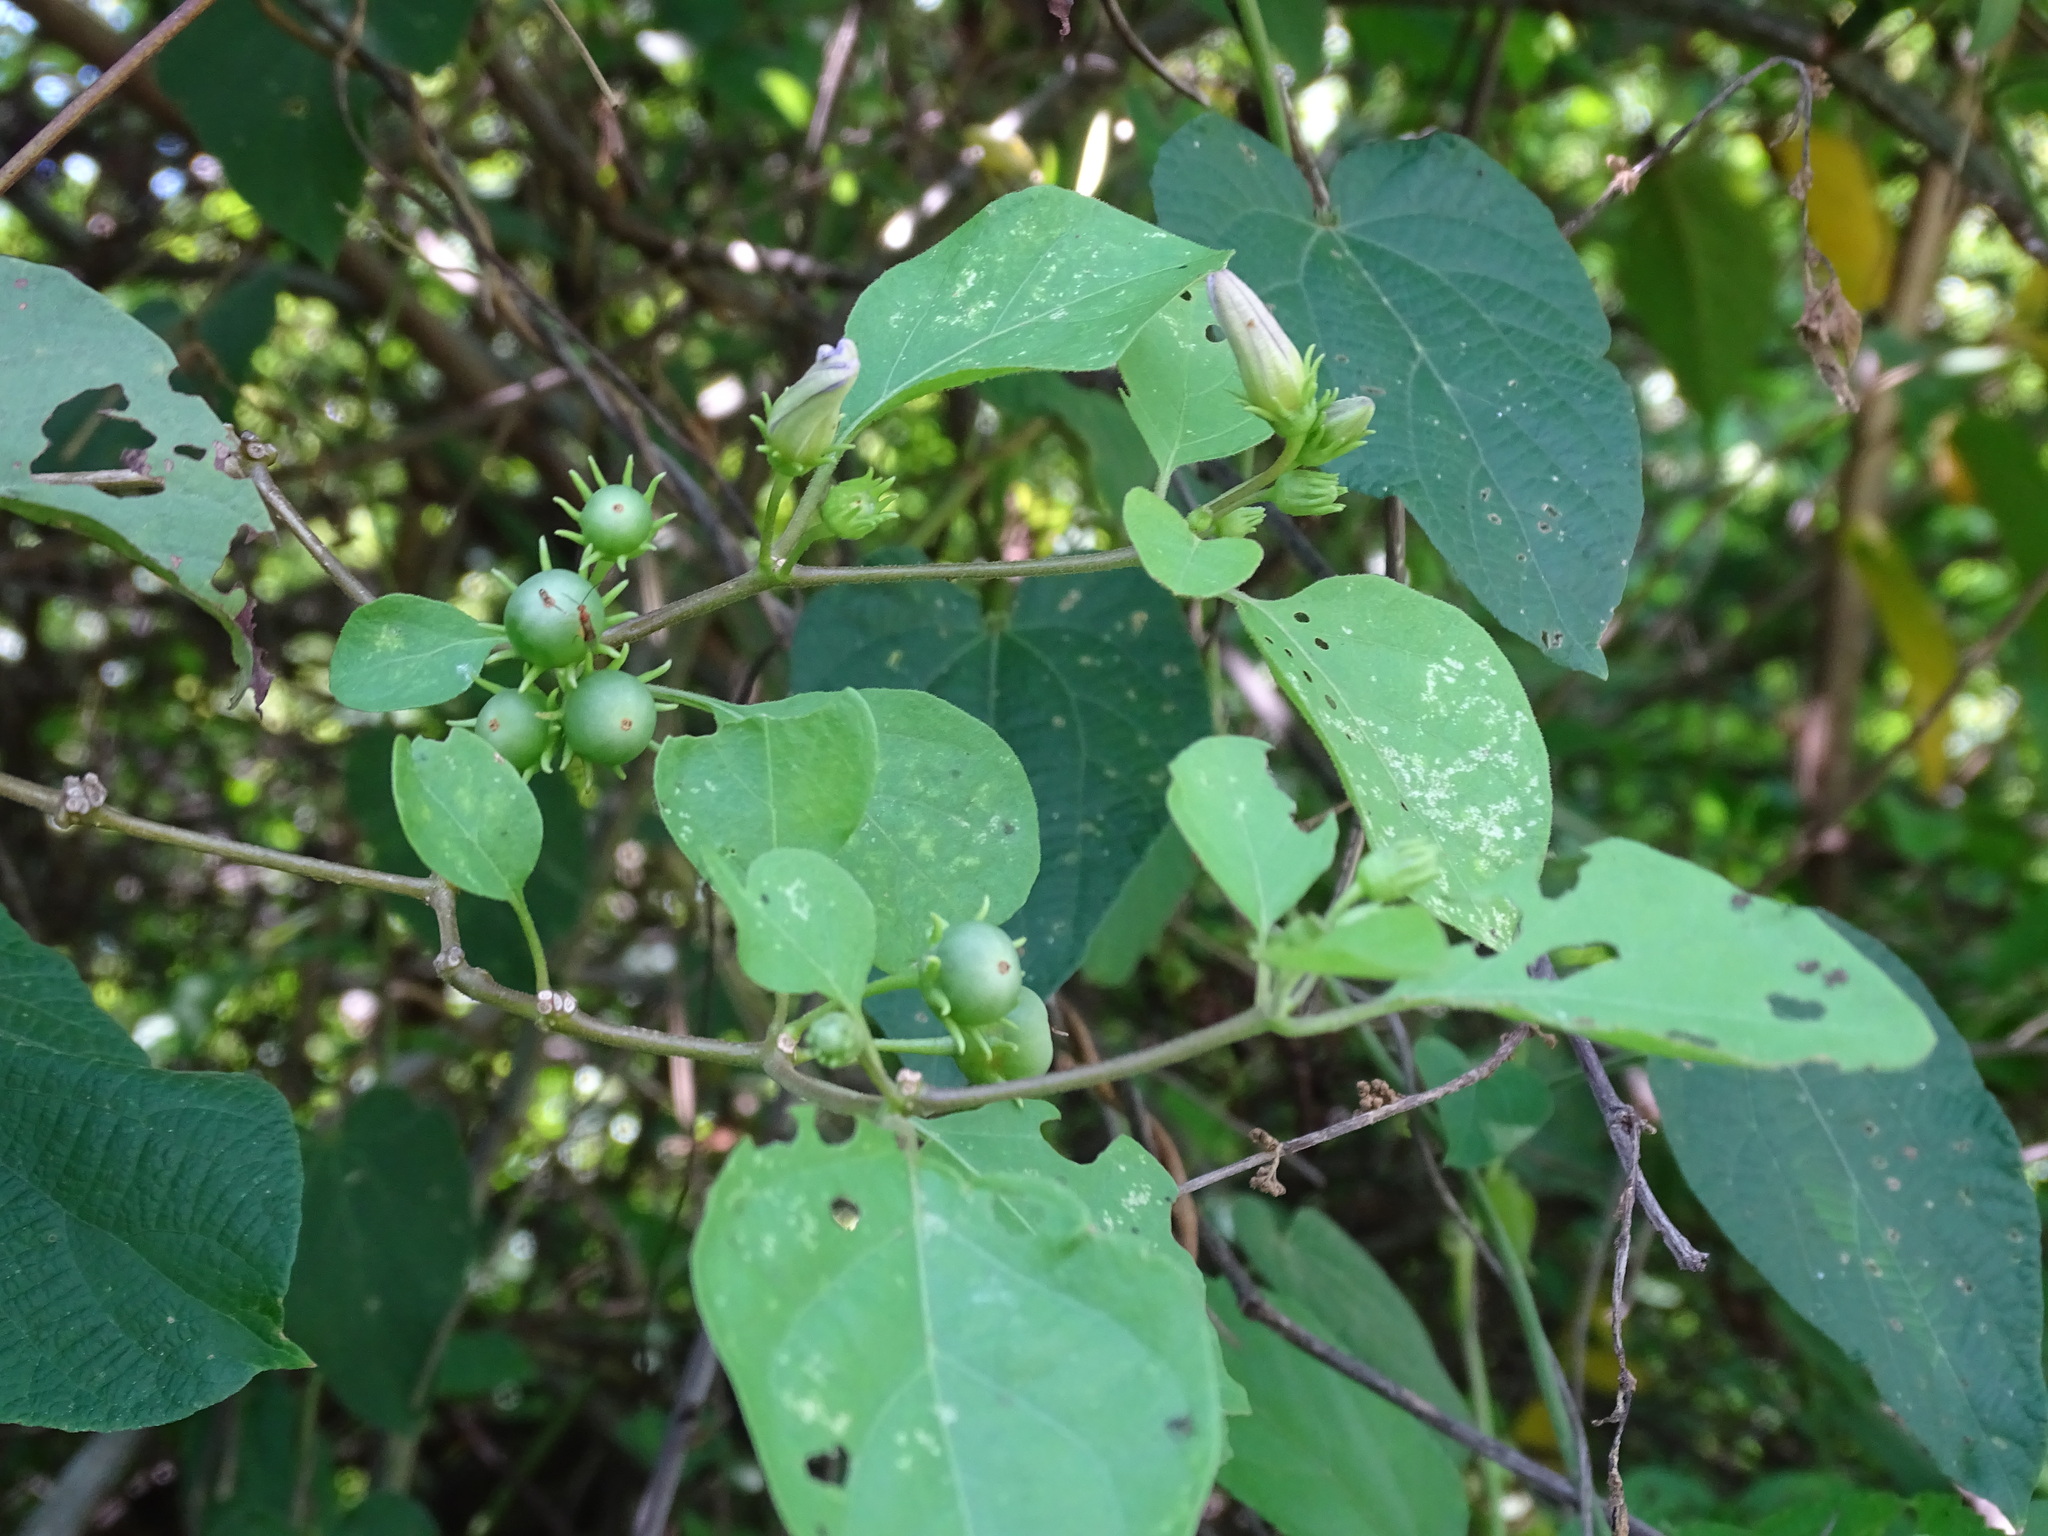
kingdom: Plantae
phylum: Tracheophyta
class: Magnoliopsida
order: Solanales
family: Solanaceae
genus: Lycianthes
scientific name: Lycianthes scandens
